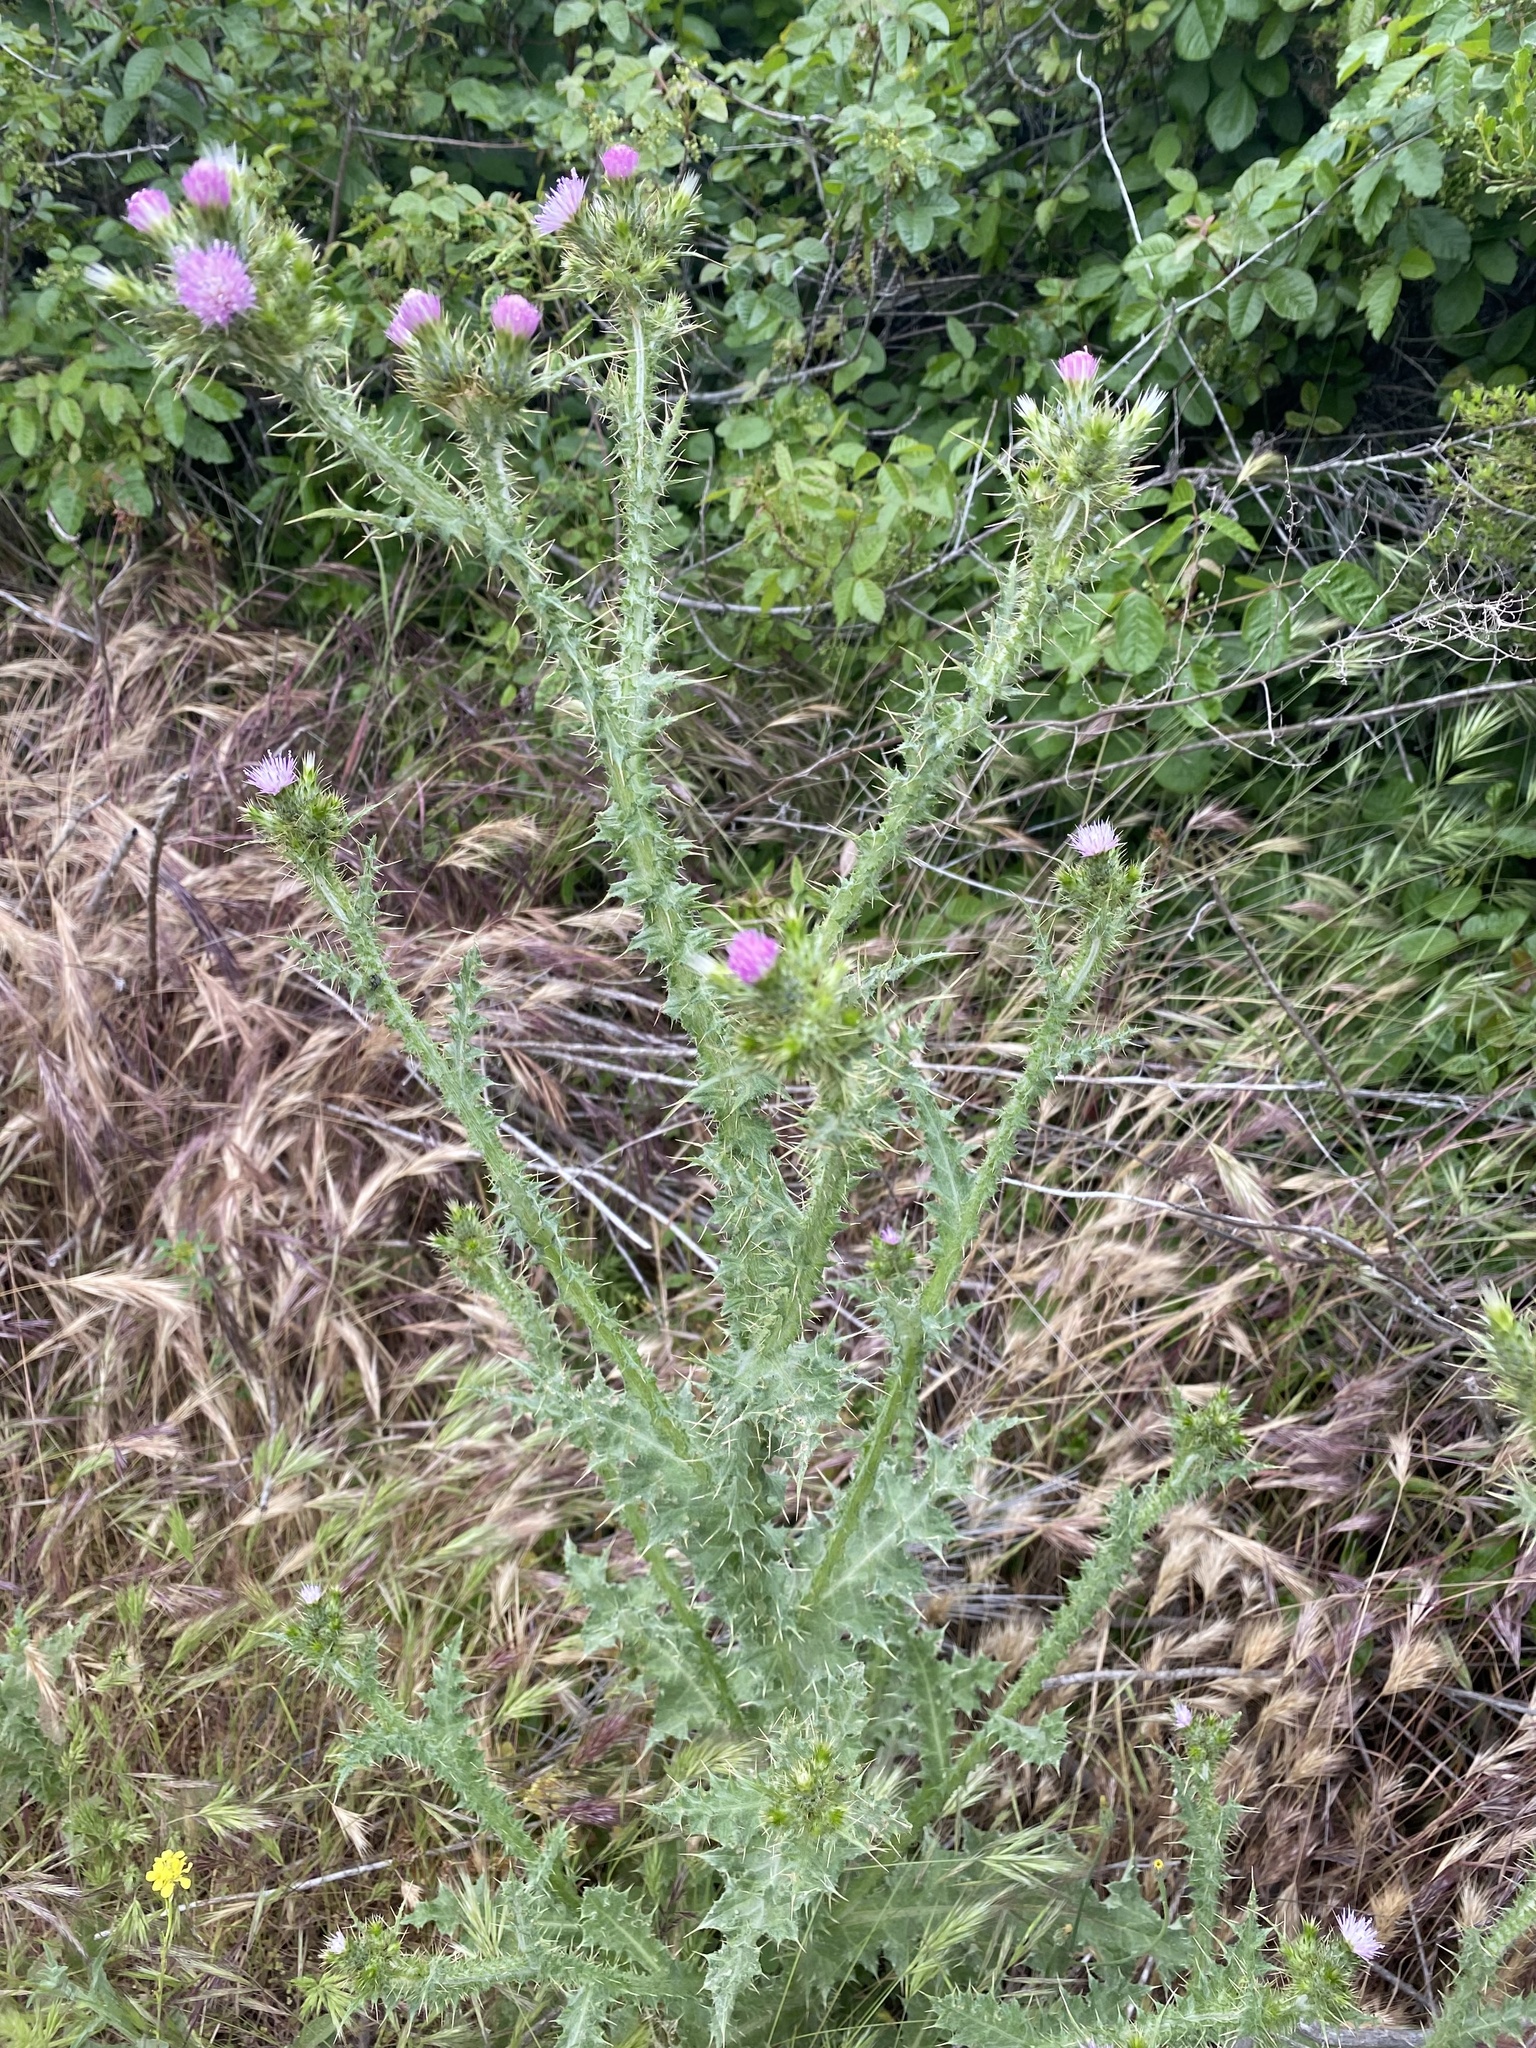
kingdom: Plantae
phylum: Tracheophyta
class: Magnoliopsida
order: Asterales
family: Asteraceae
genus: Carduus
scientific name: Carduus tenuiflorus
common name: Slender thistle
